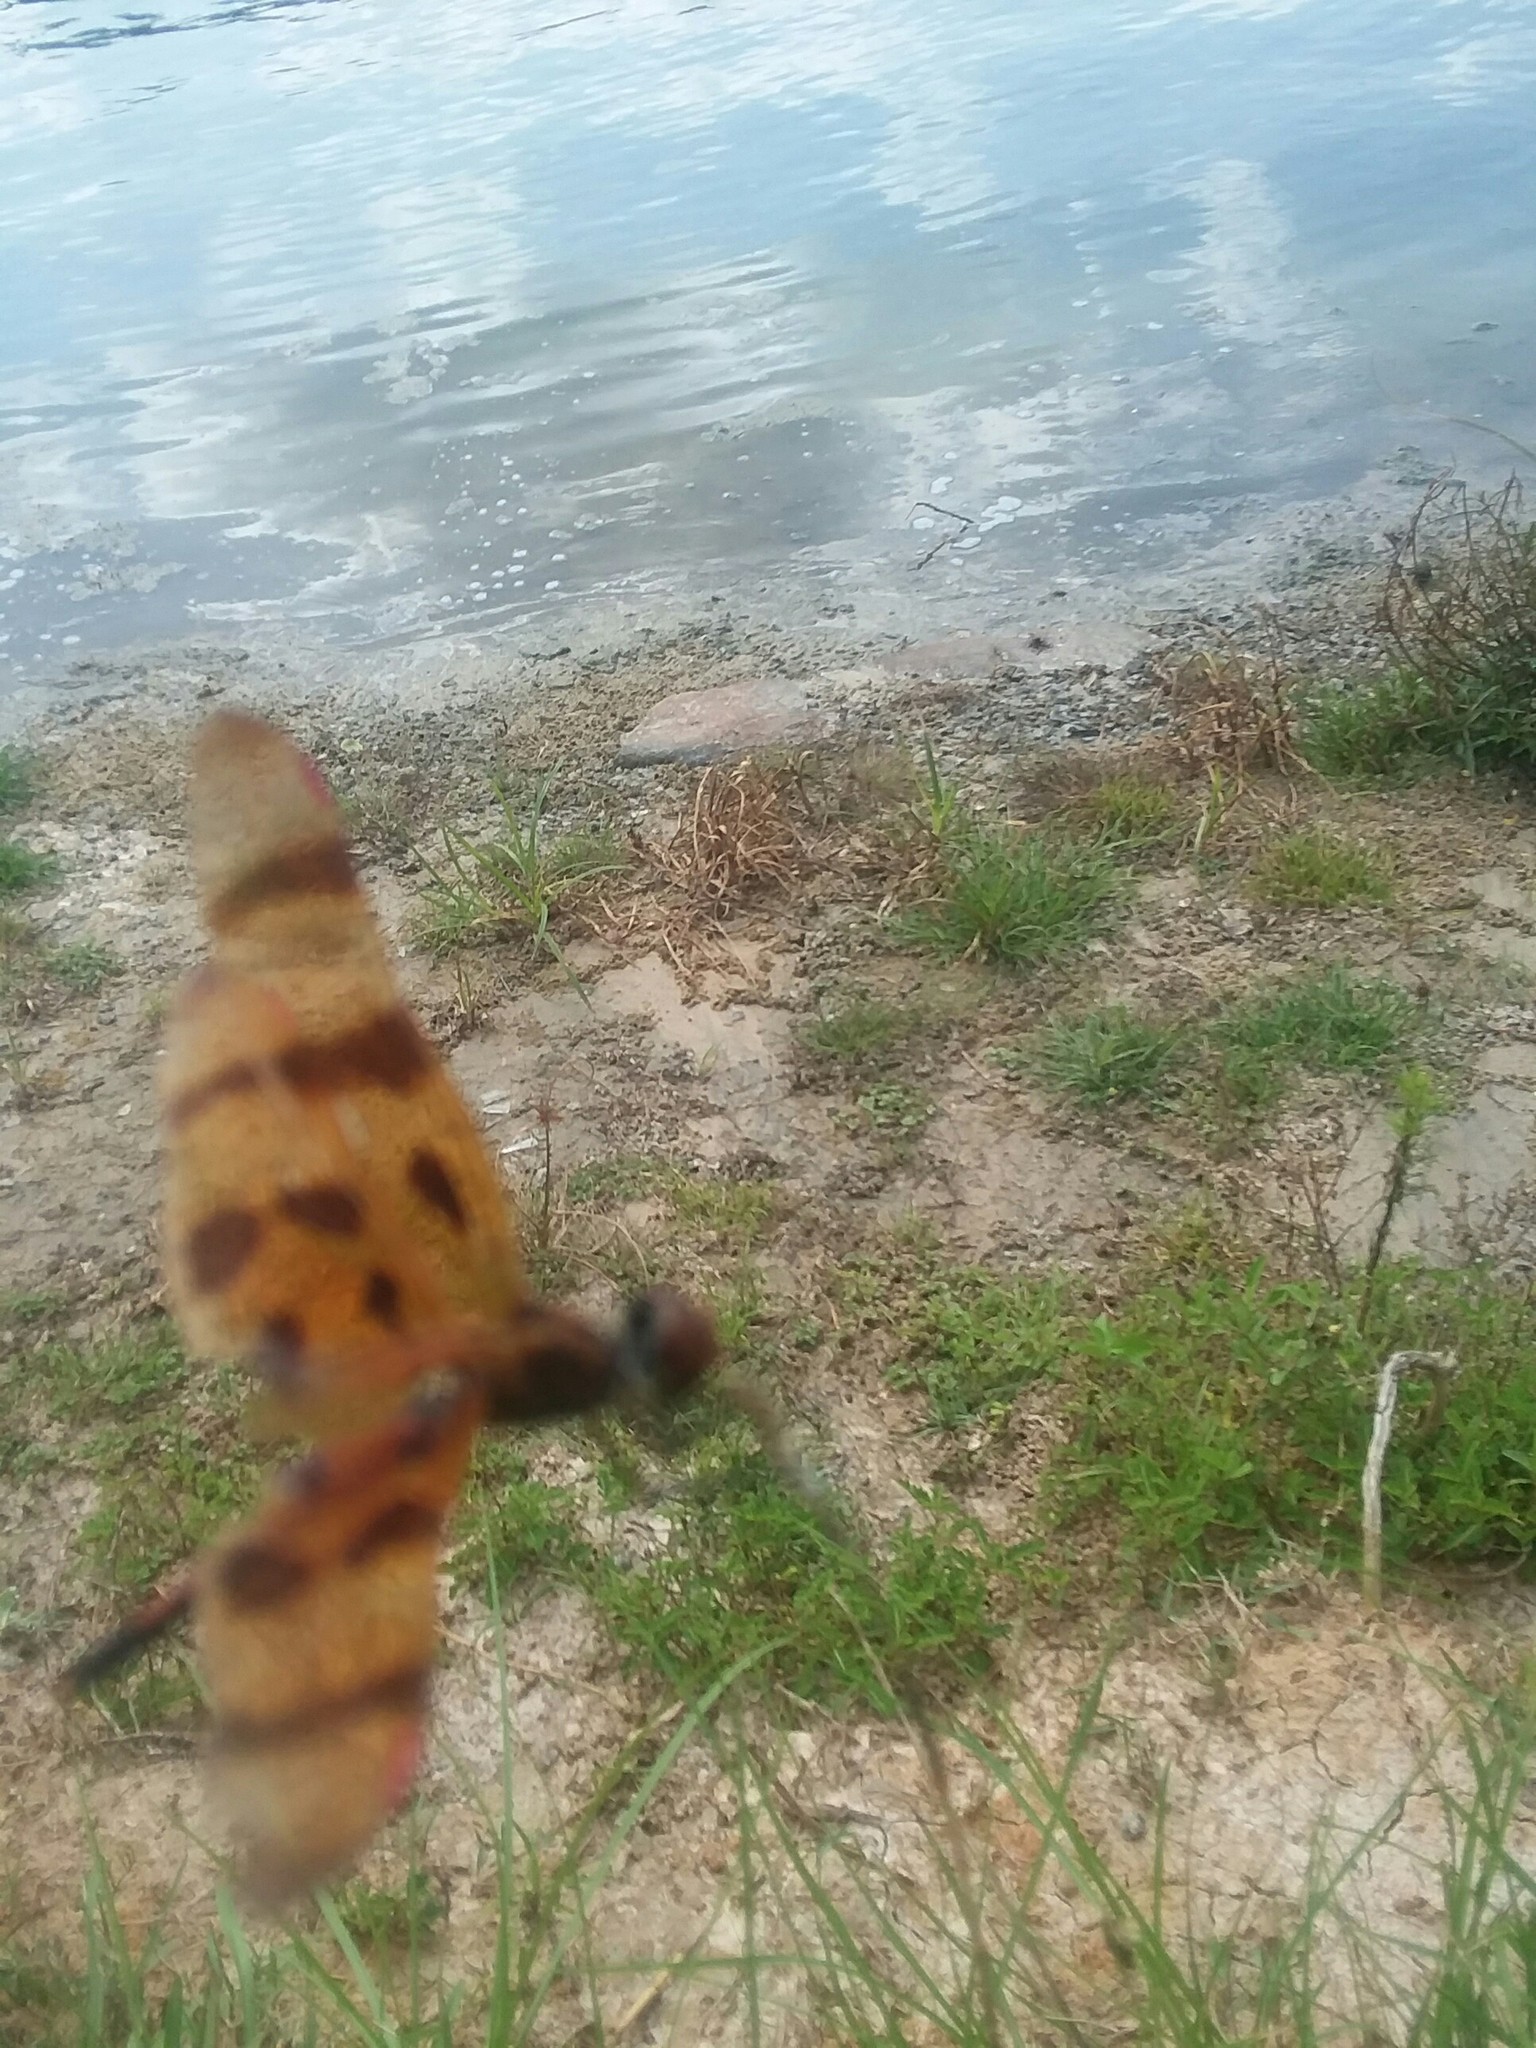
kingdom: Animalia
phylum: Arthropoda
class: Insecta
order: Odonata
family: Libellulidae
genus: Celithemis
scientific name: Celithemis eponina
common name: Halloween pennant
